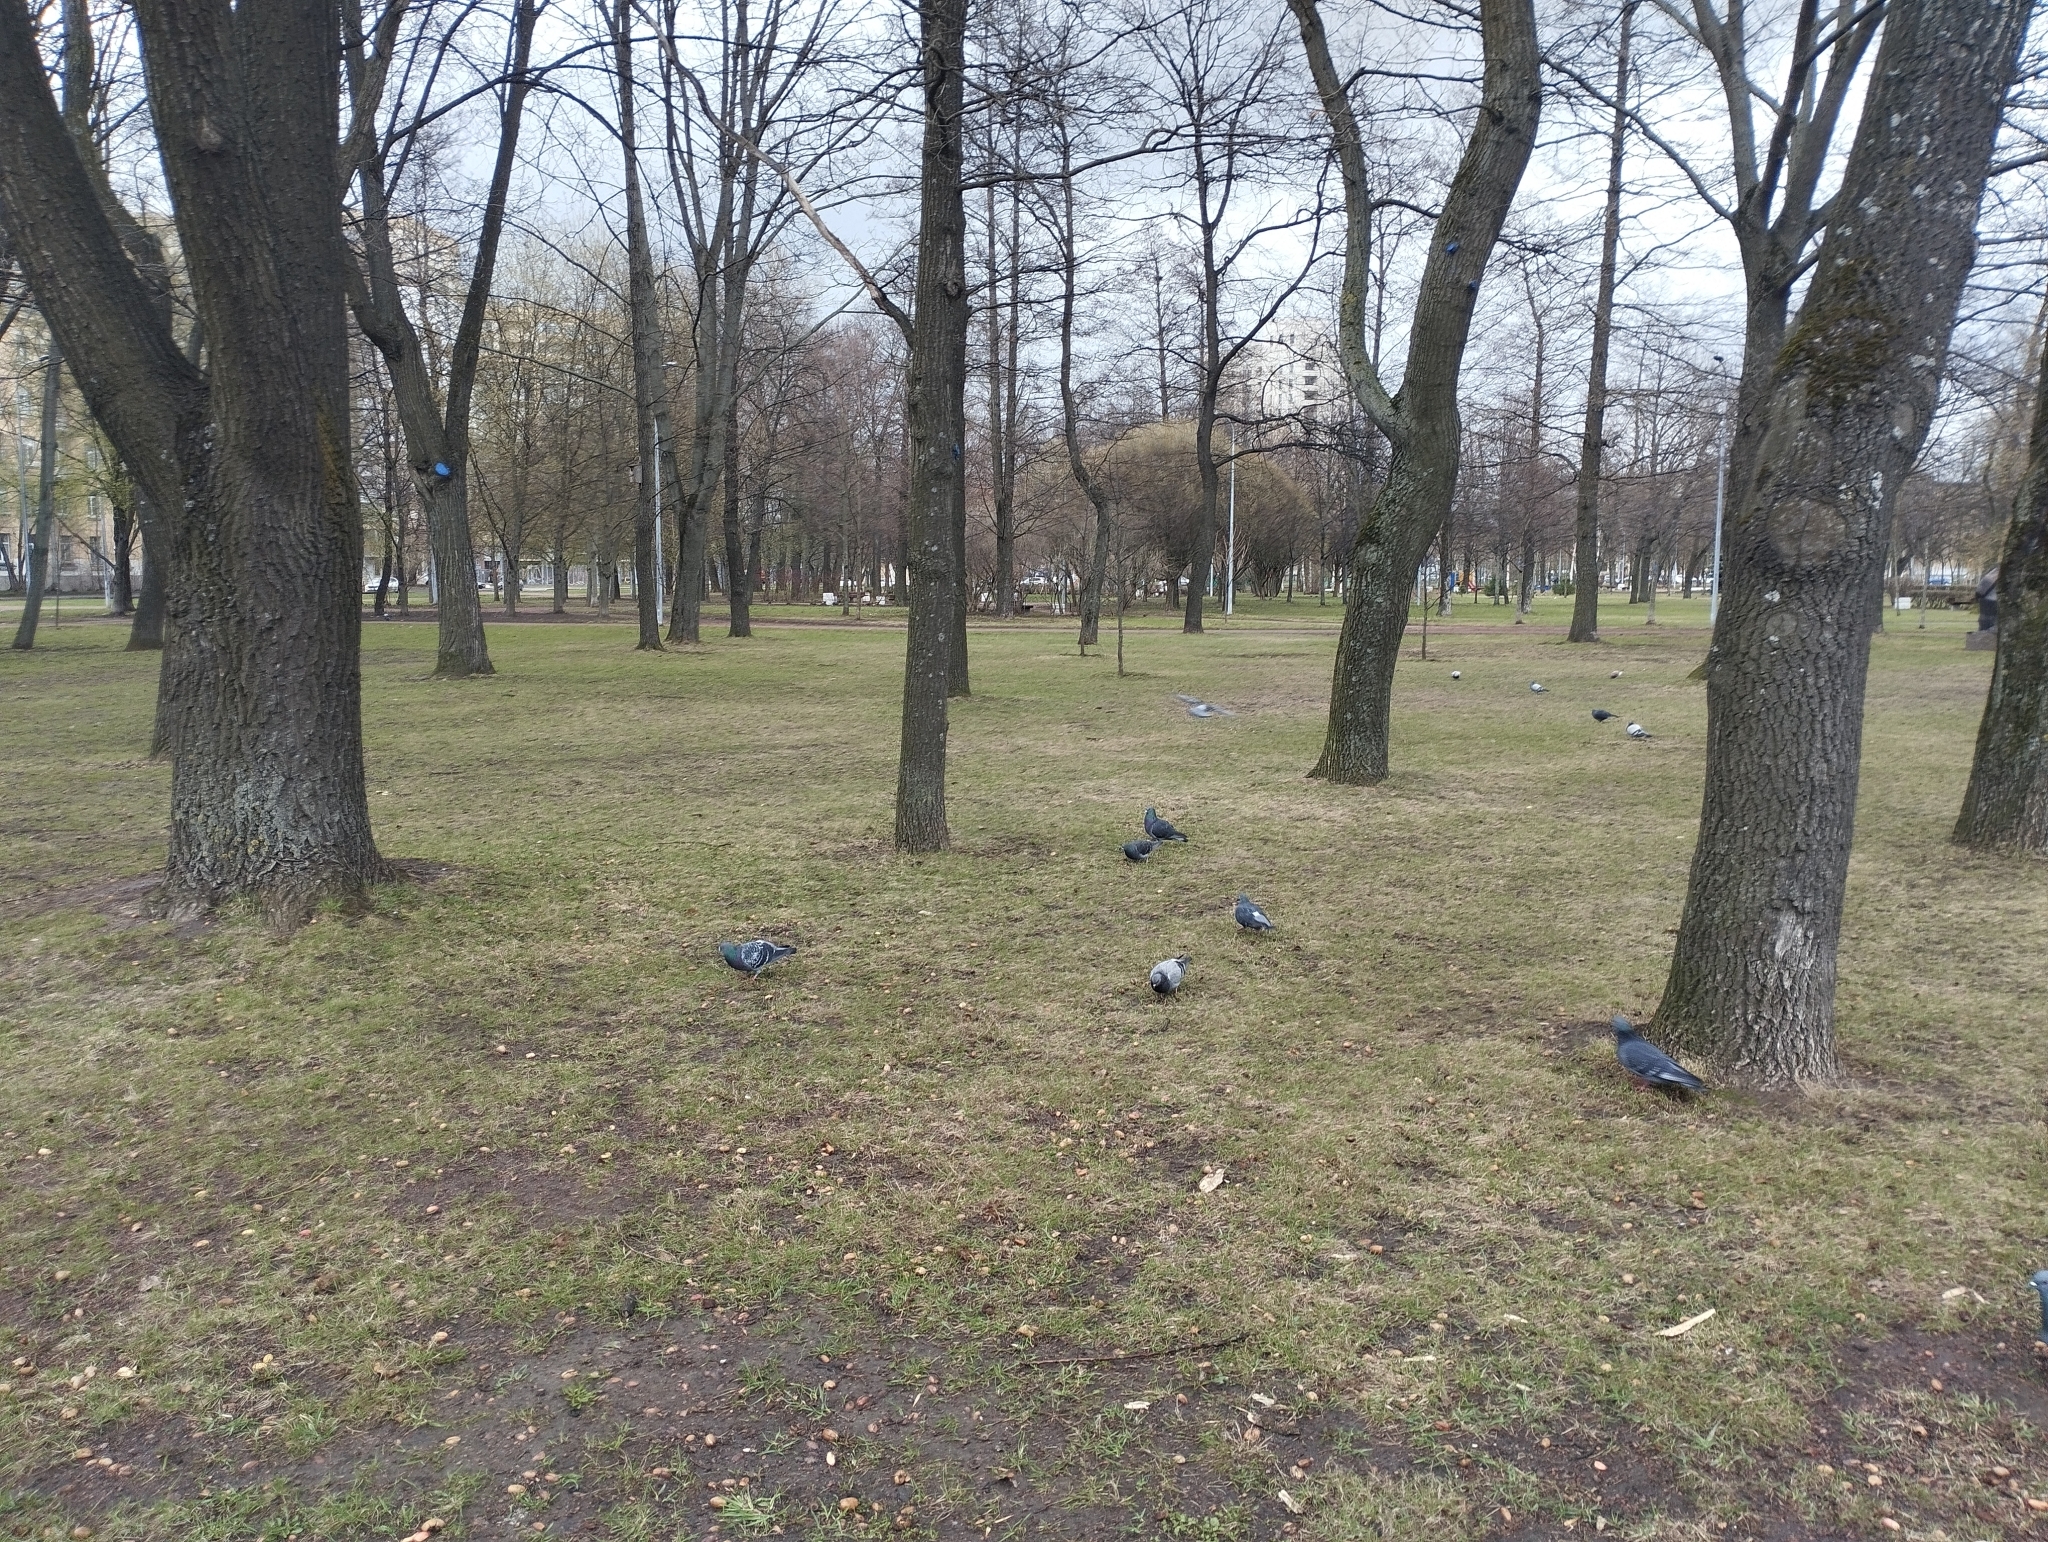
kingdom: Animalia
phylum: Chordata
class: Aves
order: Columbiformes
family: Columbidae
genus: Columba
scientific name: Columba livia
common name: Rock pigeon
